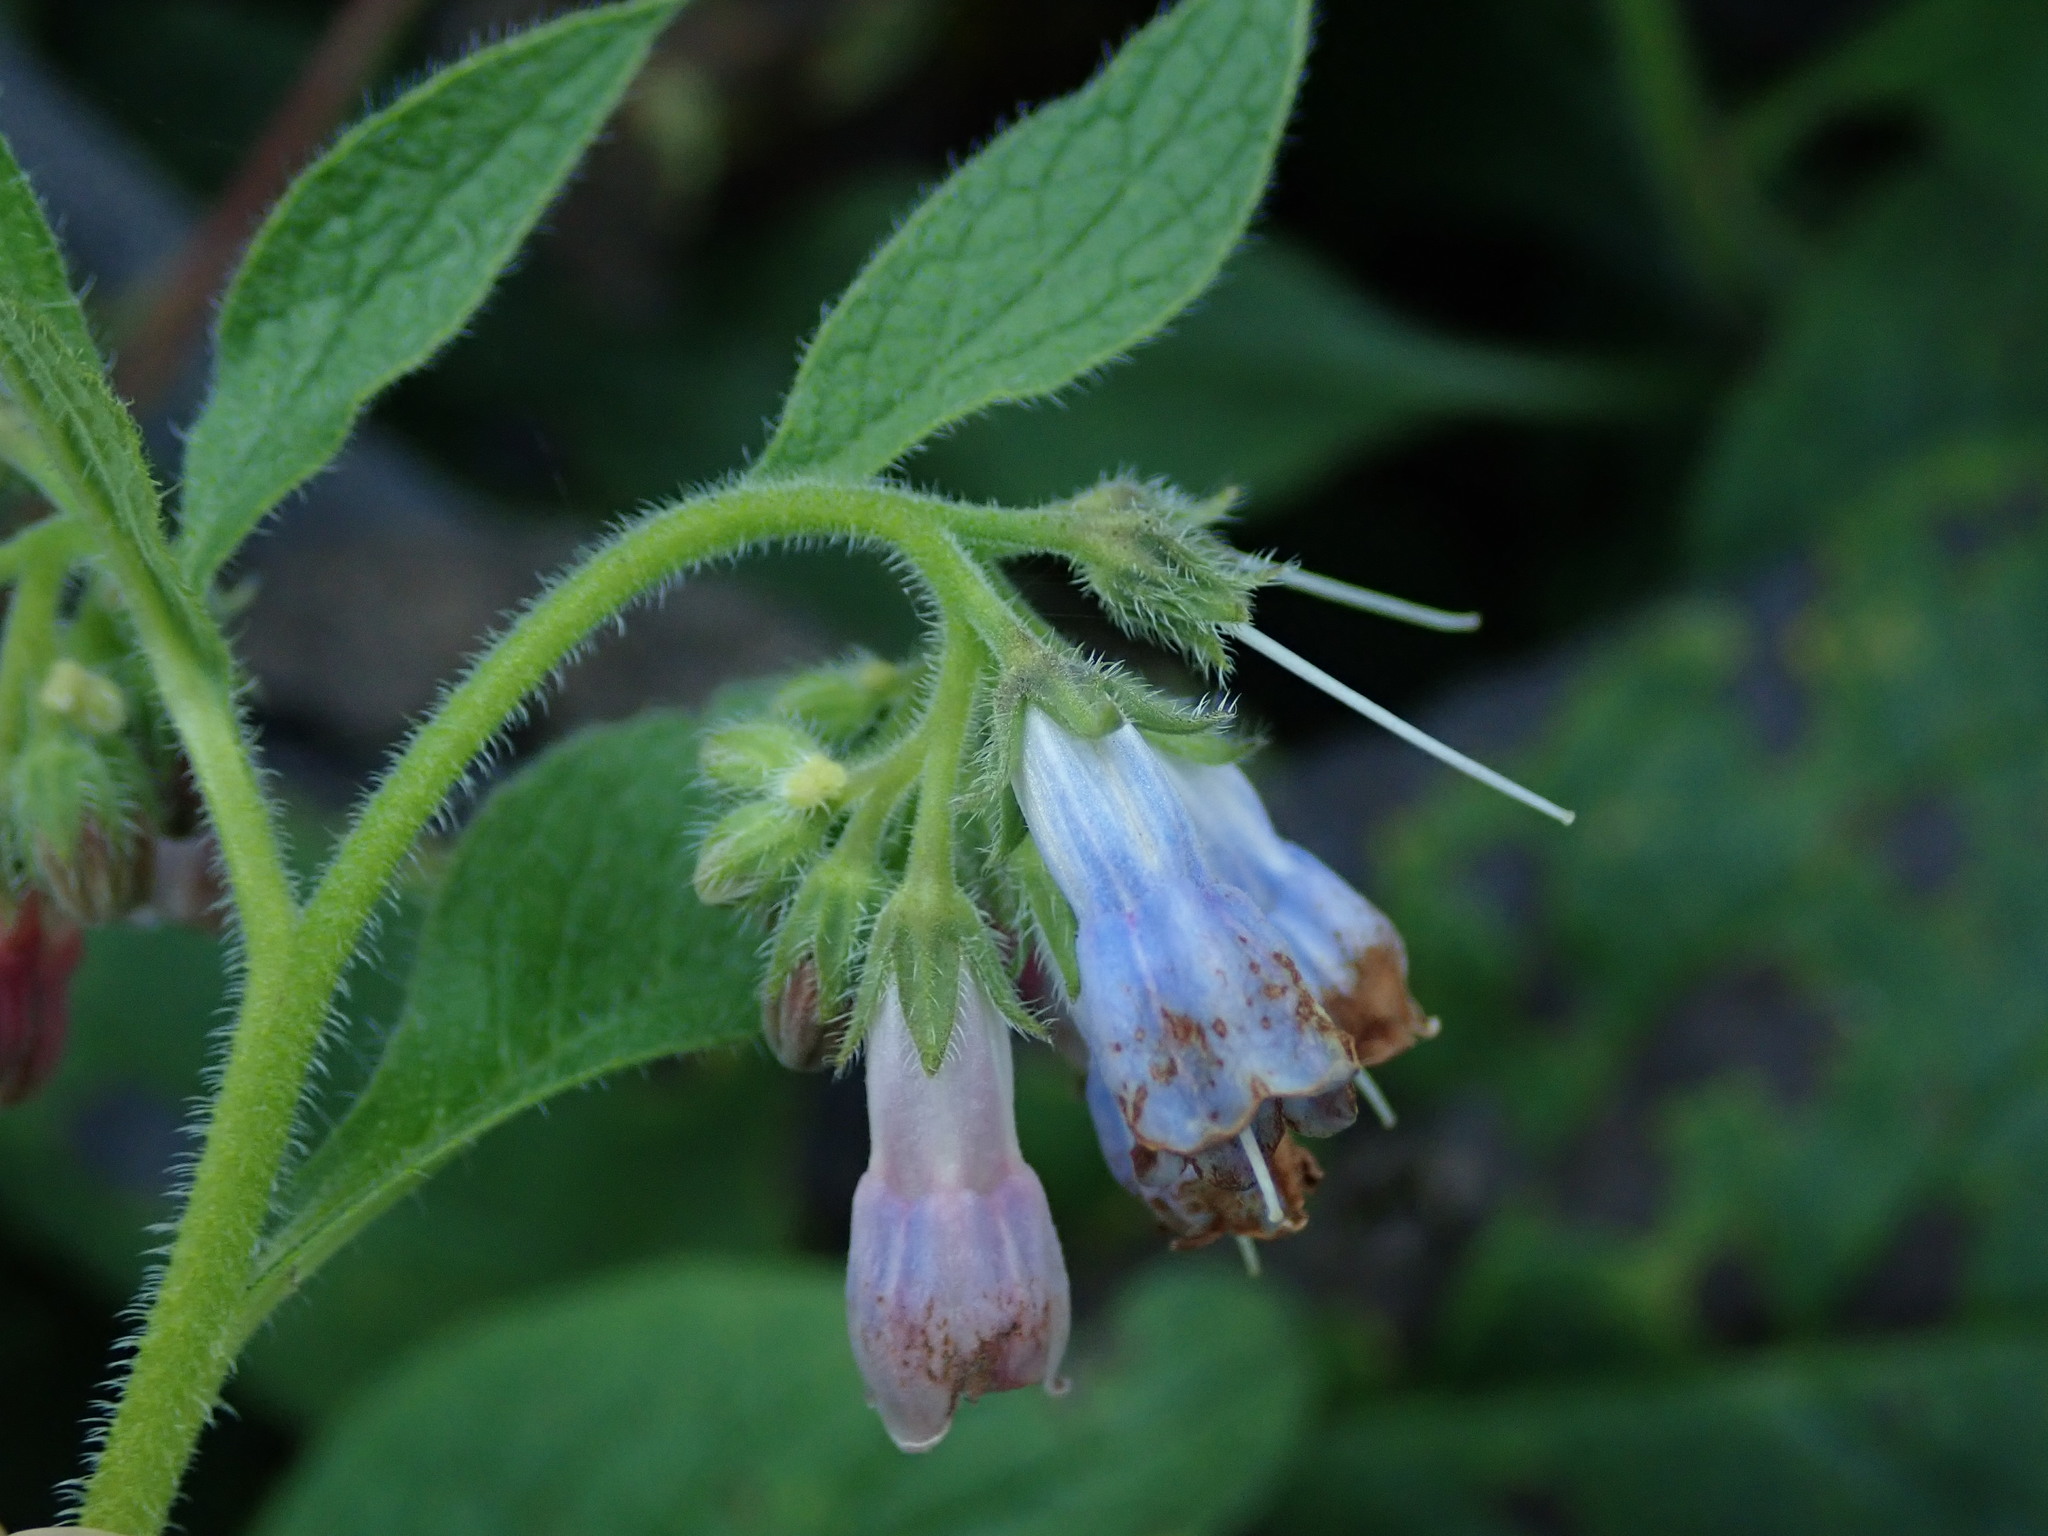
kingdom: Plantae
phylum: Tracheophyta
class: Magnoliopsida
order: Boraginales
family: Boraginaceae
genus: Symphytum
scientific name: Symphytum uplandicum
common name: Russian comfrey
